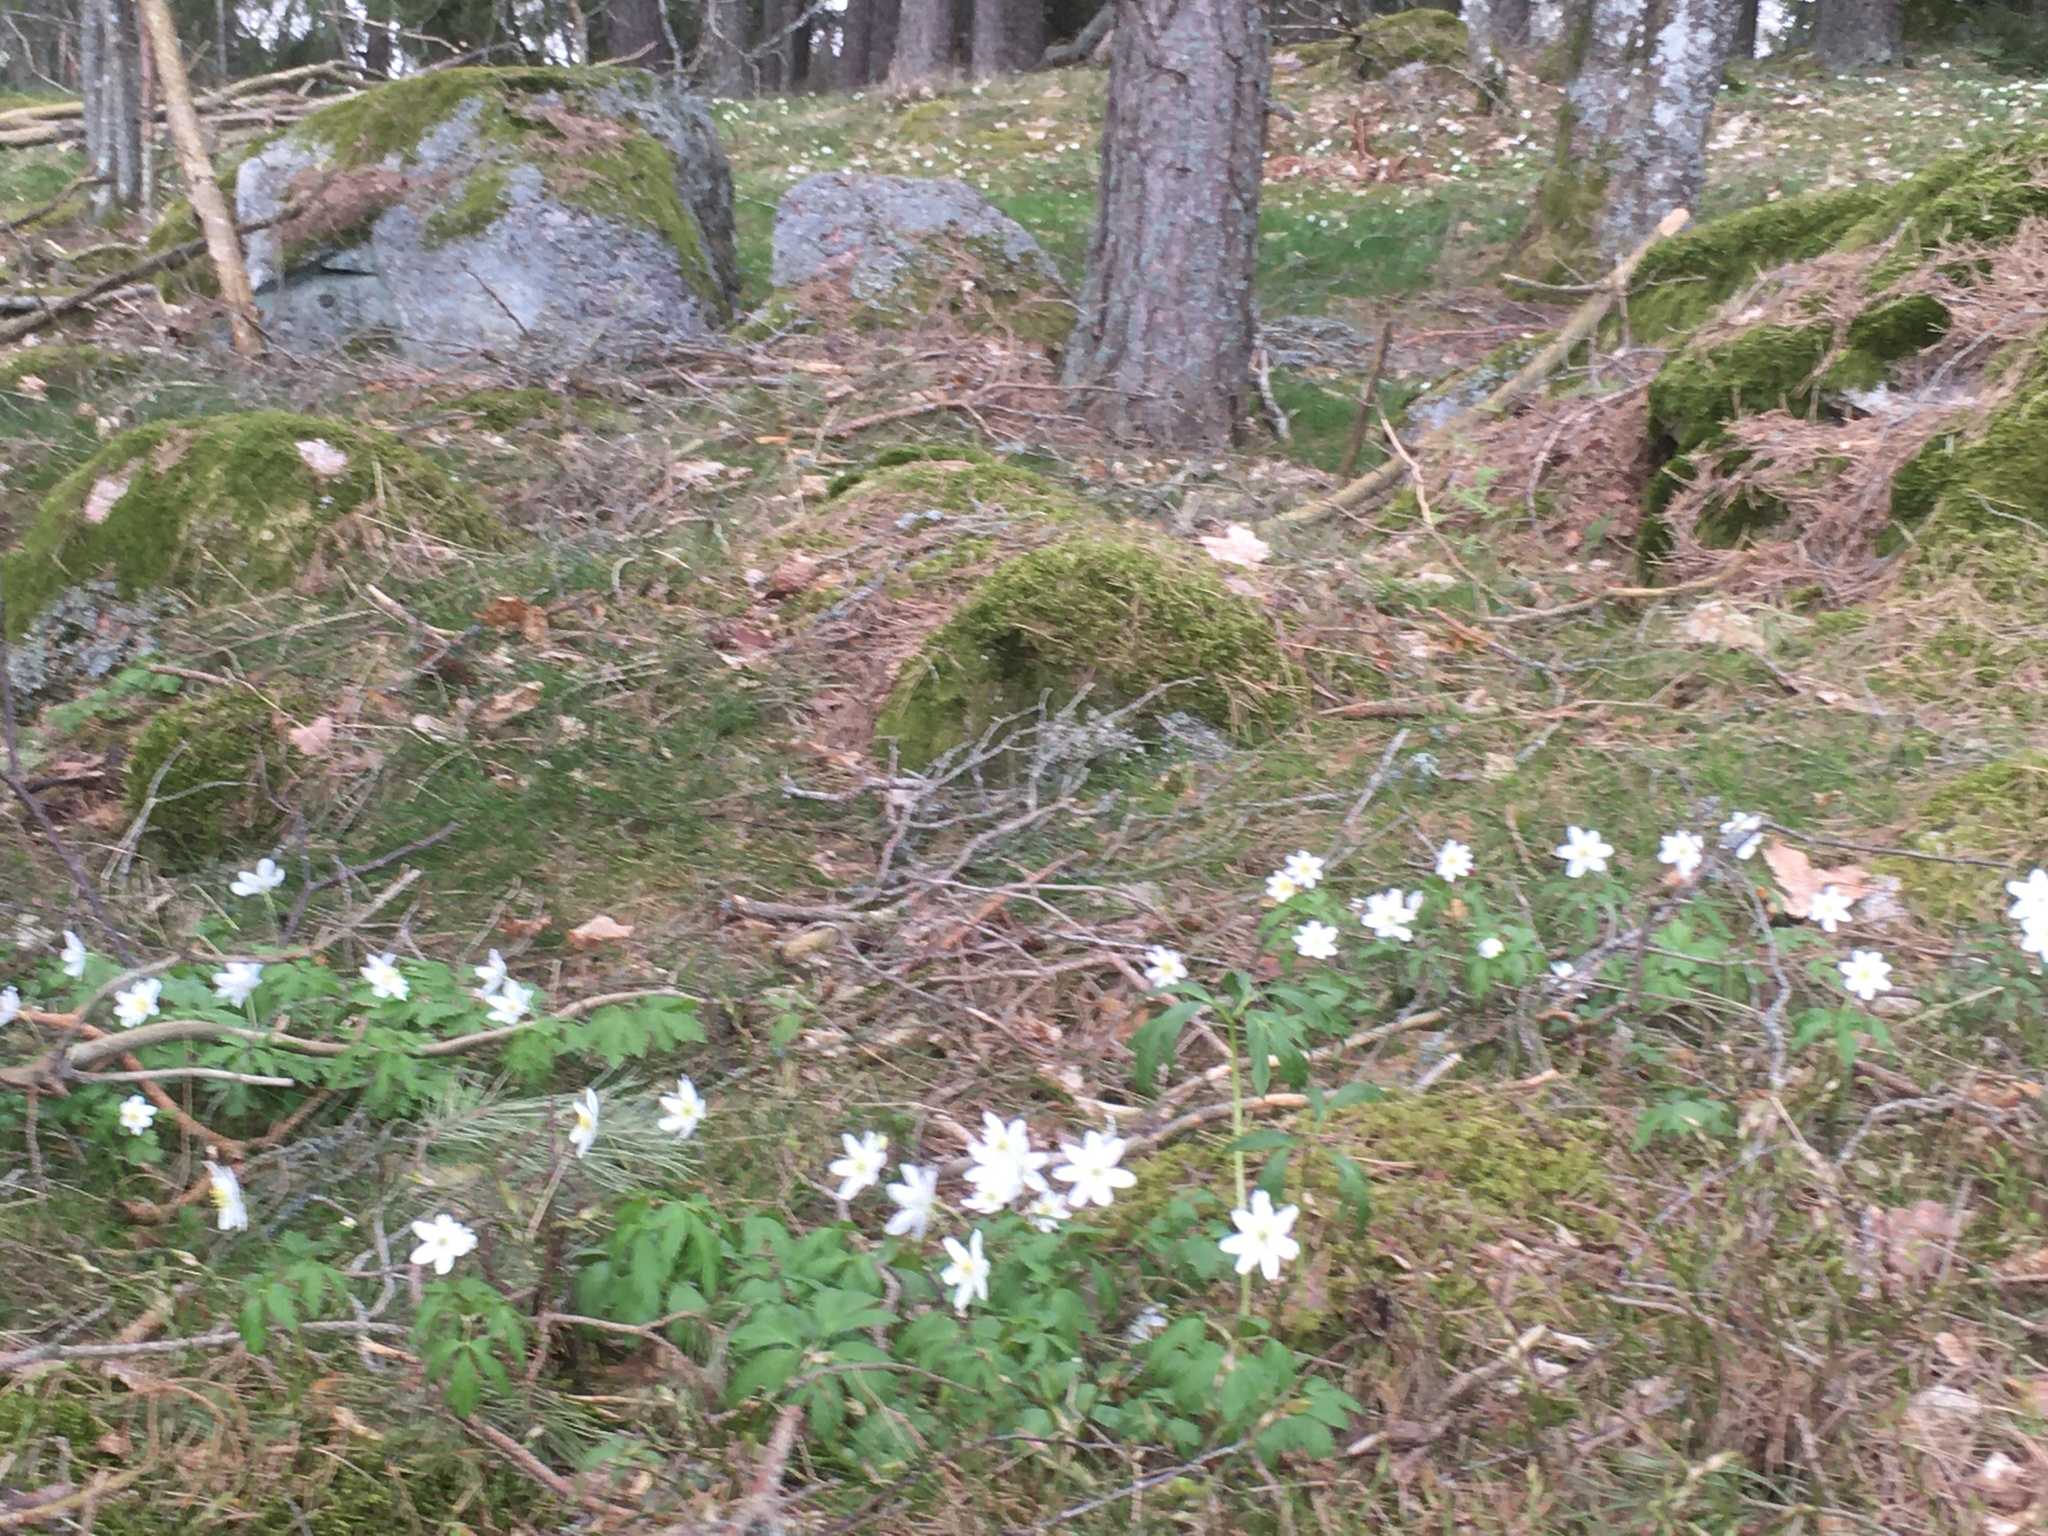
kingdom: Plantae
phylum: Tracheophyta
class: Magnoliopsida
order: Ranunculales
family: Ranunculaceae
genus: Anemone
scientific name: Anemone nemorosa
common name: Wood anemone
